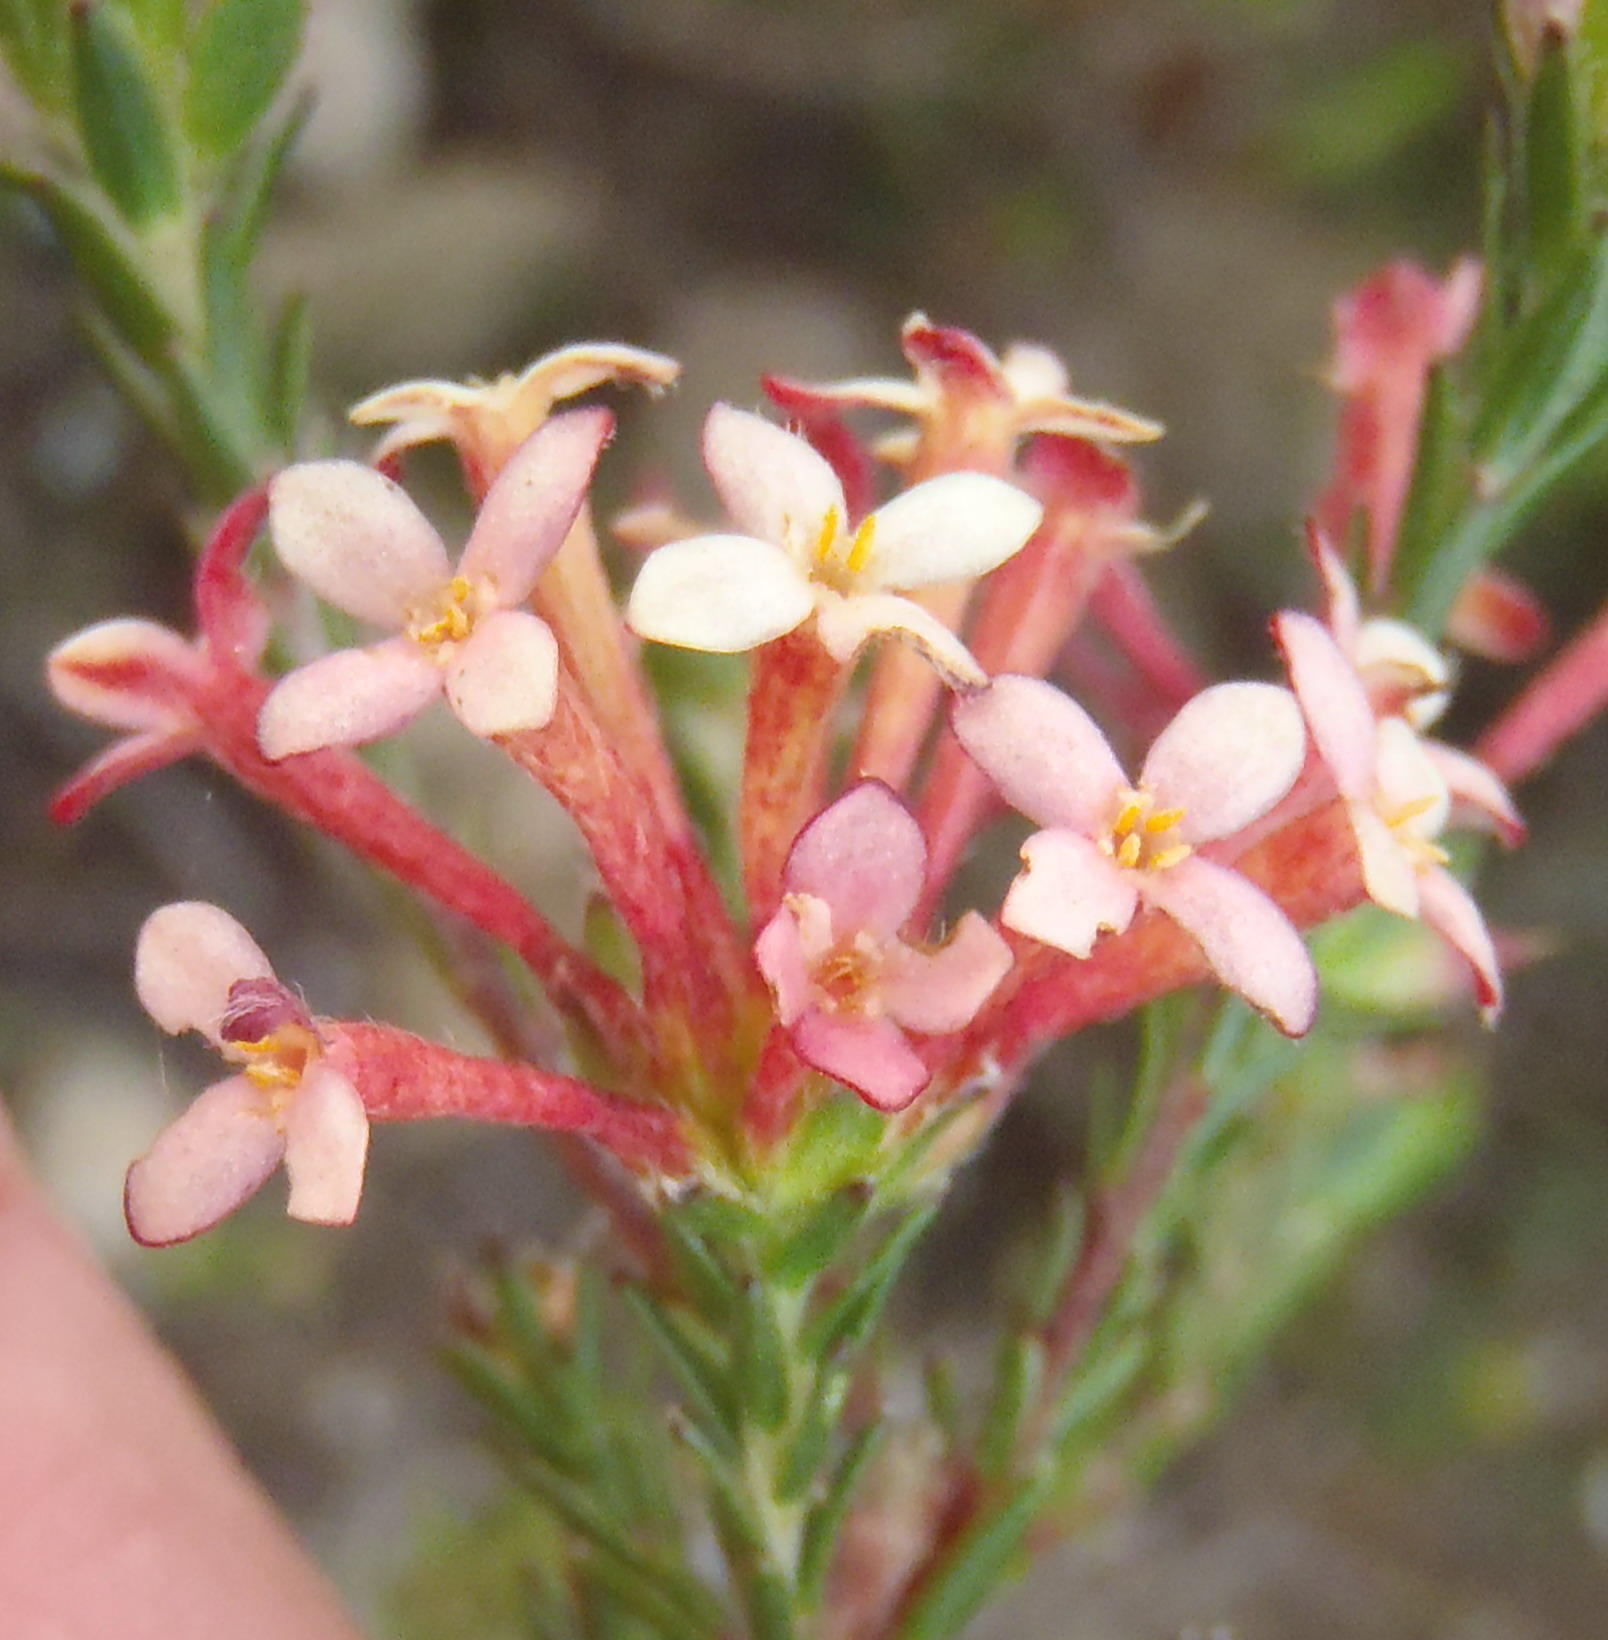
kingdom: Plantae
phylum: Tracheophyta
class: Magnoliopsida
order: Malvales
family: Thymelaeaceae
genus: Gnidia
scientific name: Gnidia squarrosa
